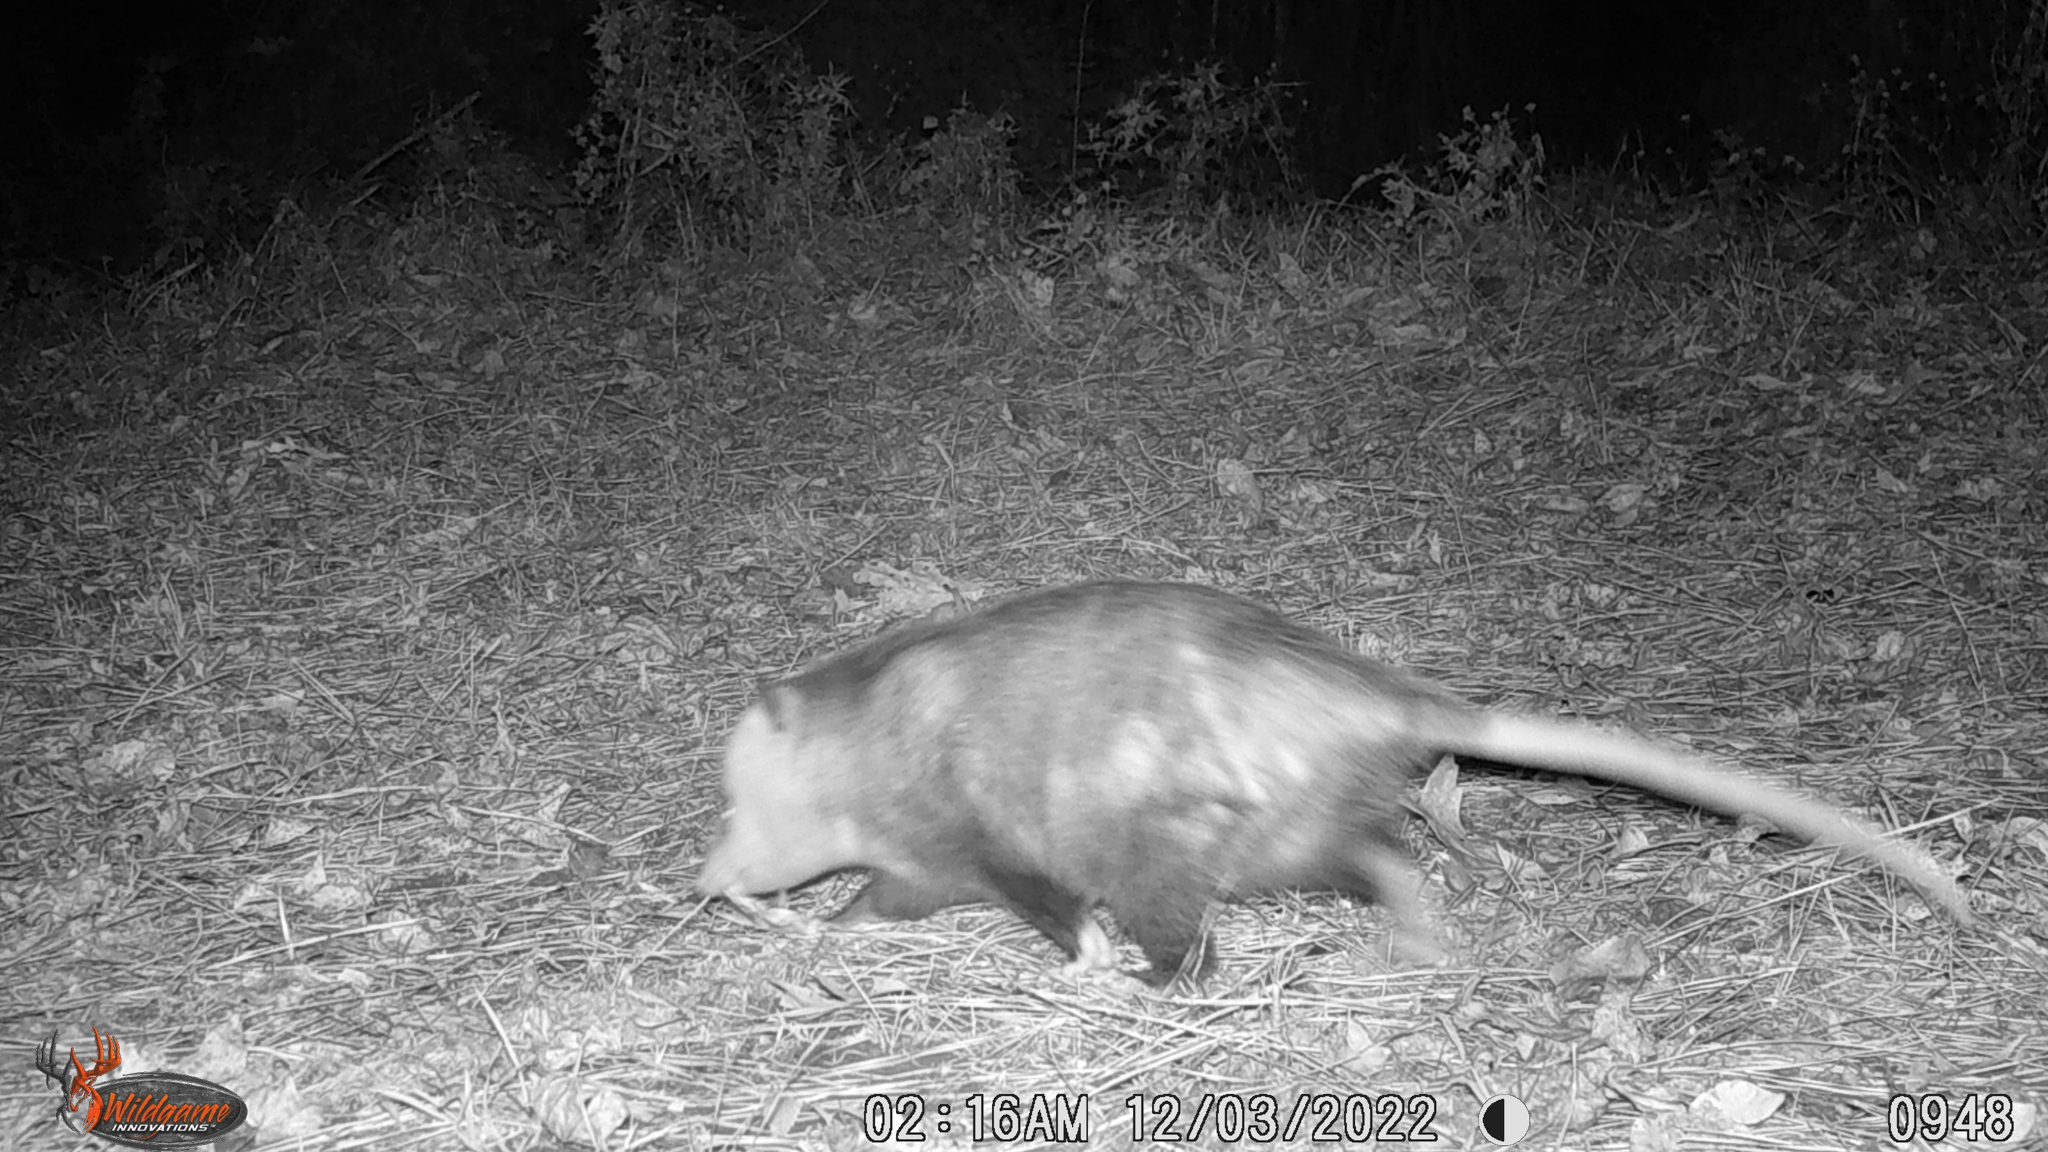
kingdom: Animalia
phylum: Chordata
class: Mammalia
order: Didelphimorphia
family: Didelphidae
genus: Didelphis
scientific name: Didelphis virginiana
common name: Virginia opossum
